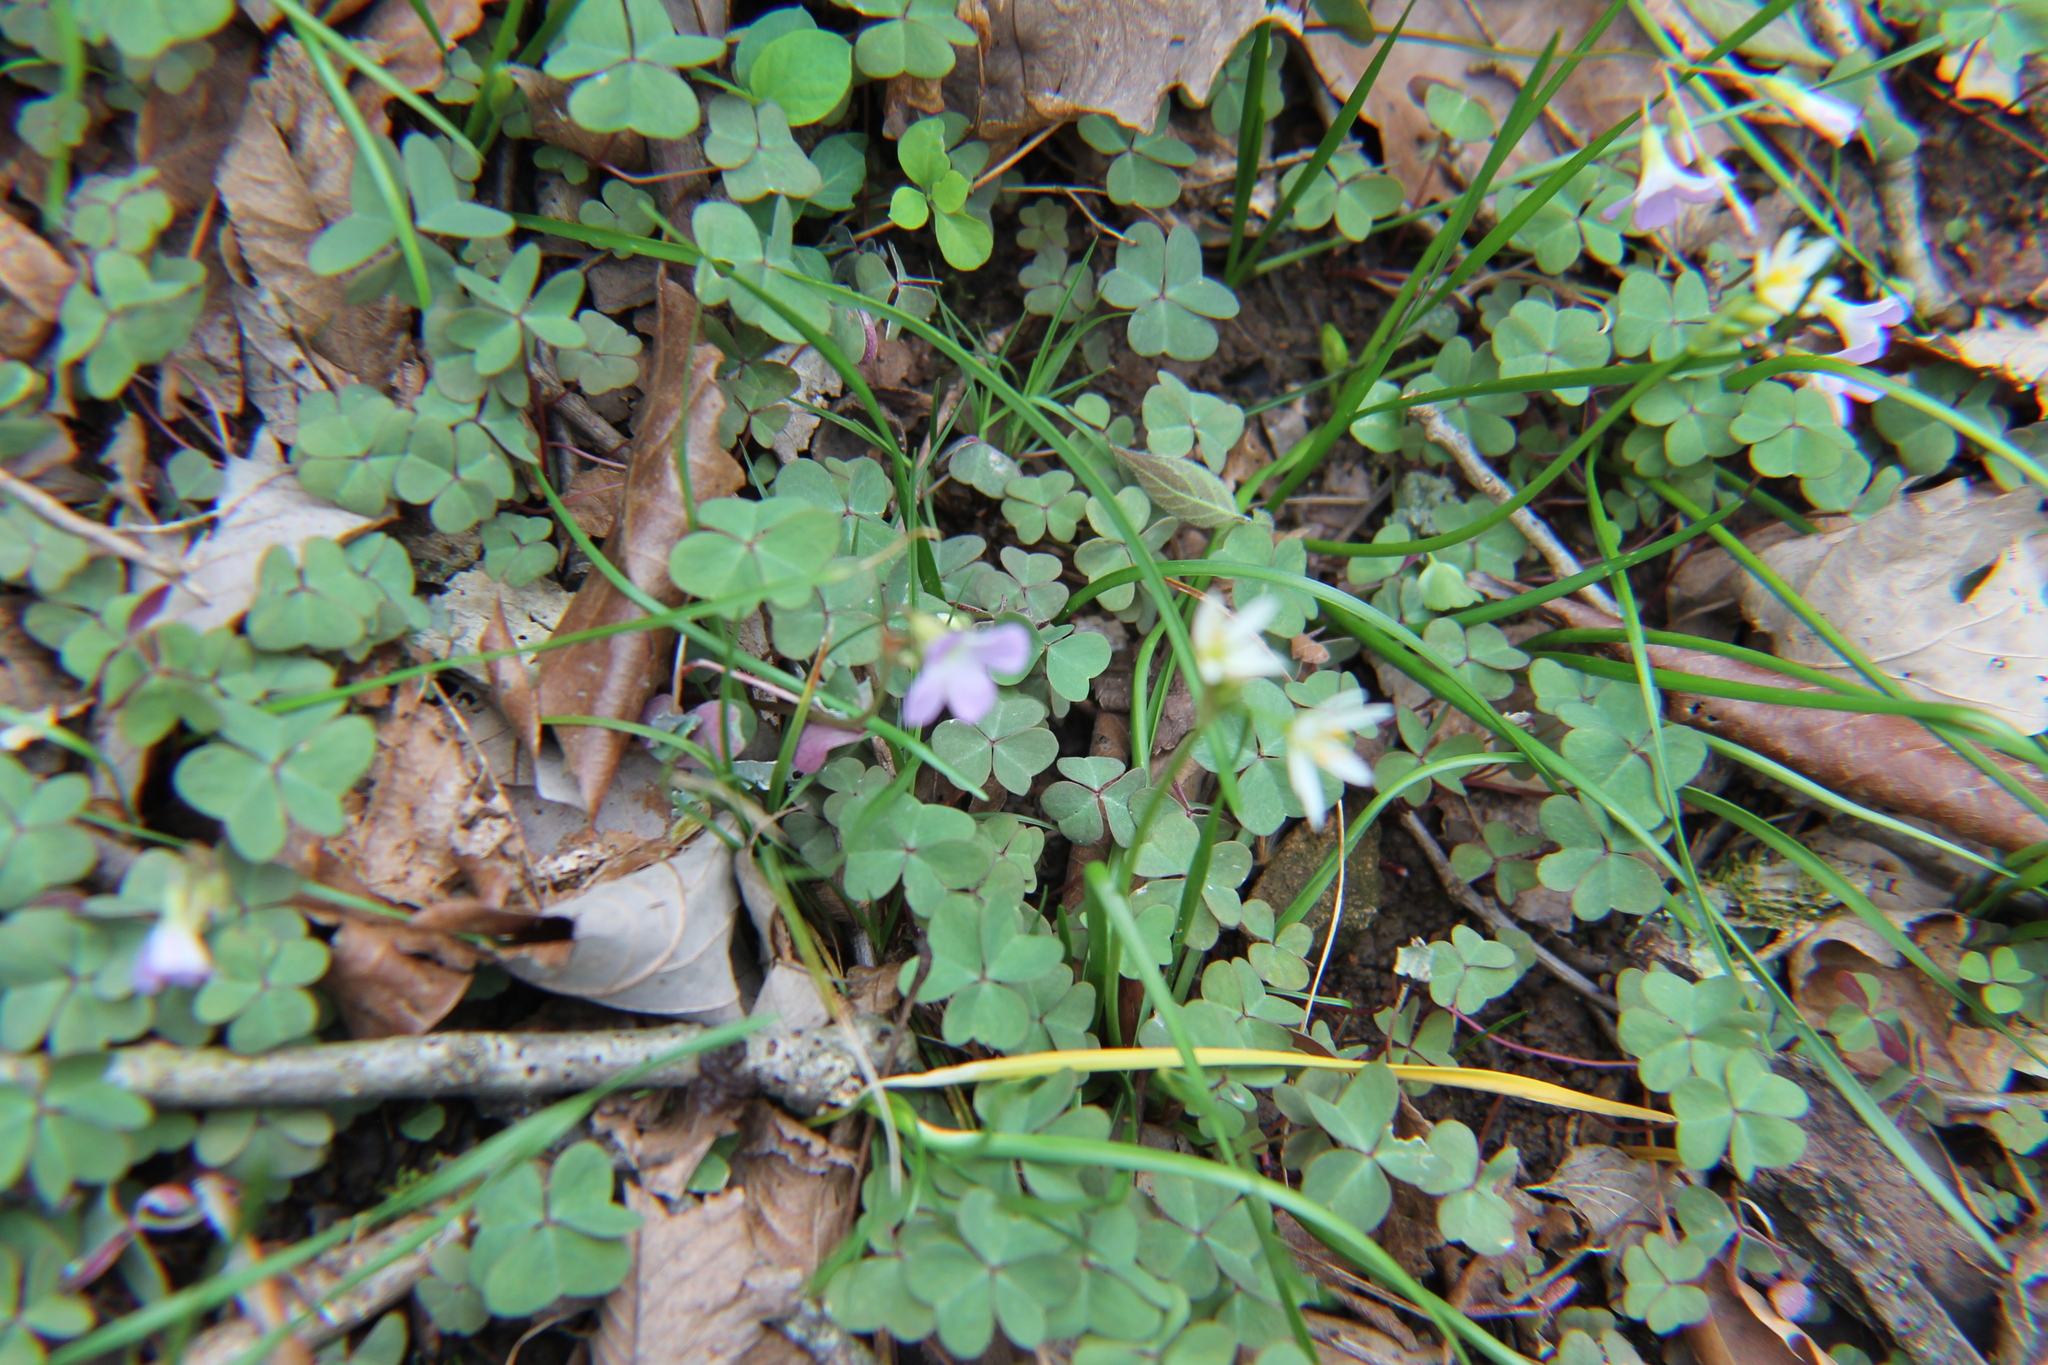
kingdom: Plantae
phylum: Tracheophyta
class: Magnoliopsida
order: Oxalidales
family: Oxalidaceae
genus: Oxalis
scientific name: Oxalis violacea
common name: Violet wood-sorrel
